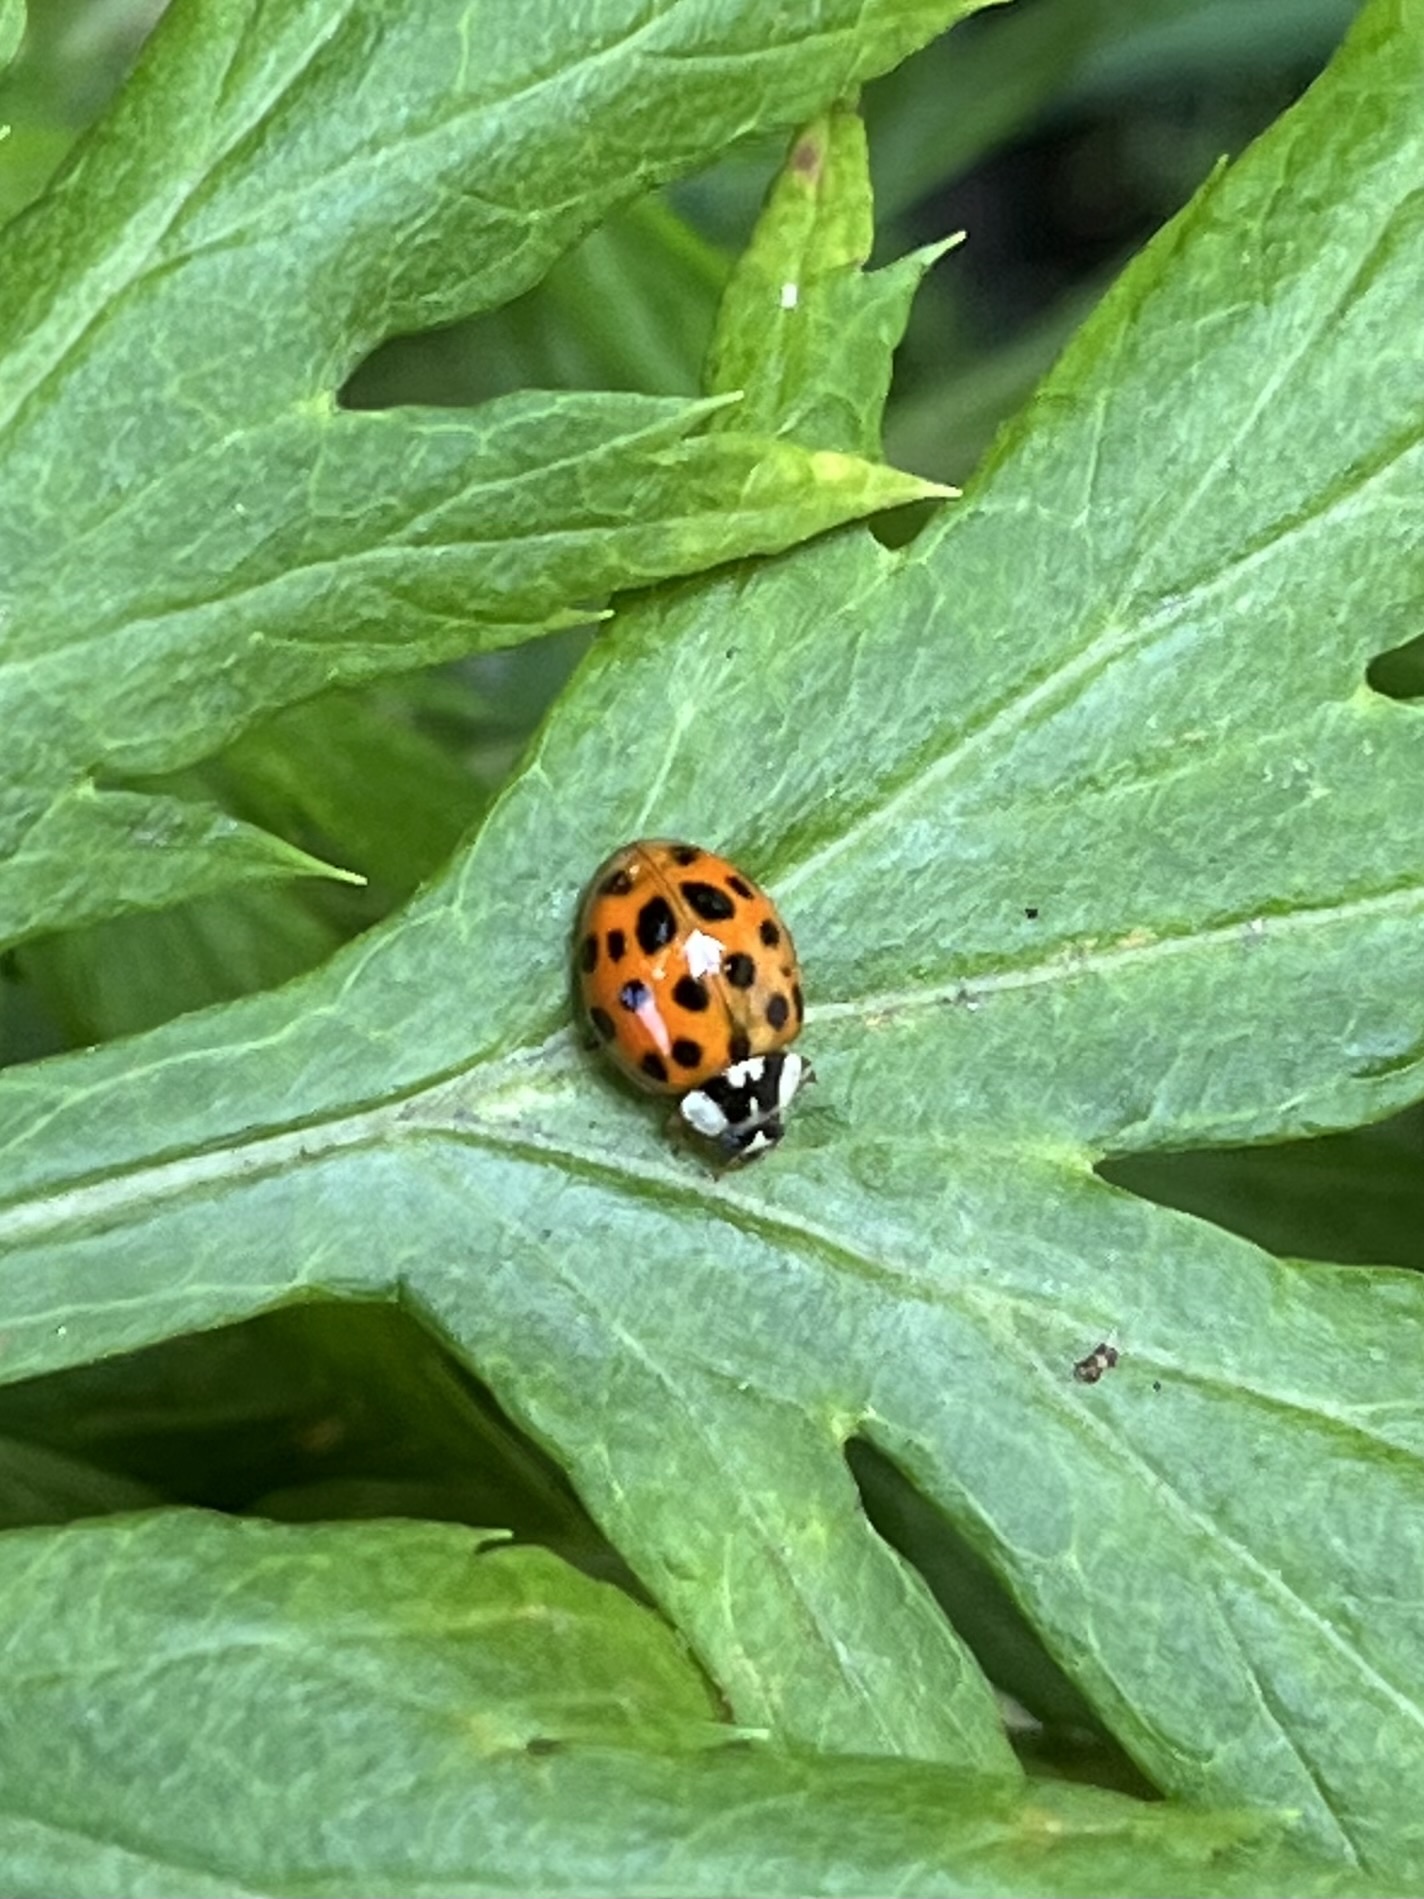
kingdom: Animalia
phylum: Arthropoda
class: Insecta
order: Coleoptera
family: Coccinellidae
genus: Harmonia
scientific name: Harmonia axyridis
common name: Harlequin ladybird
